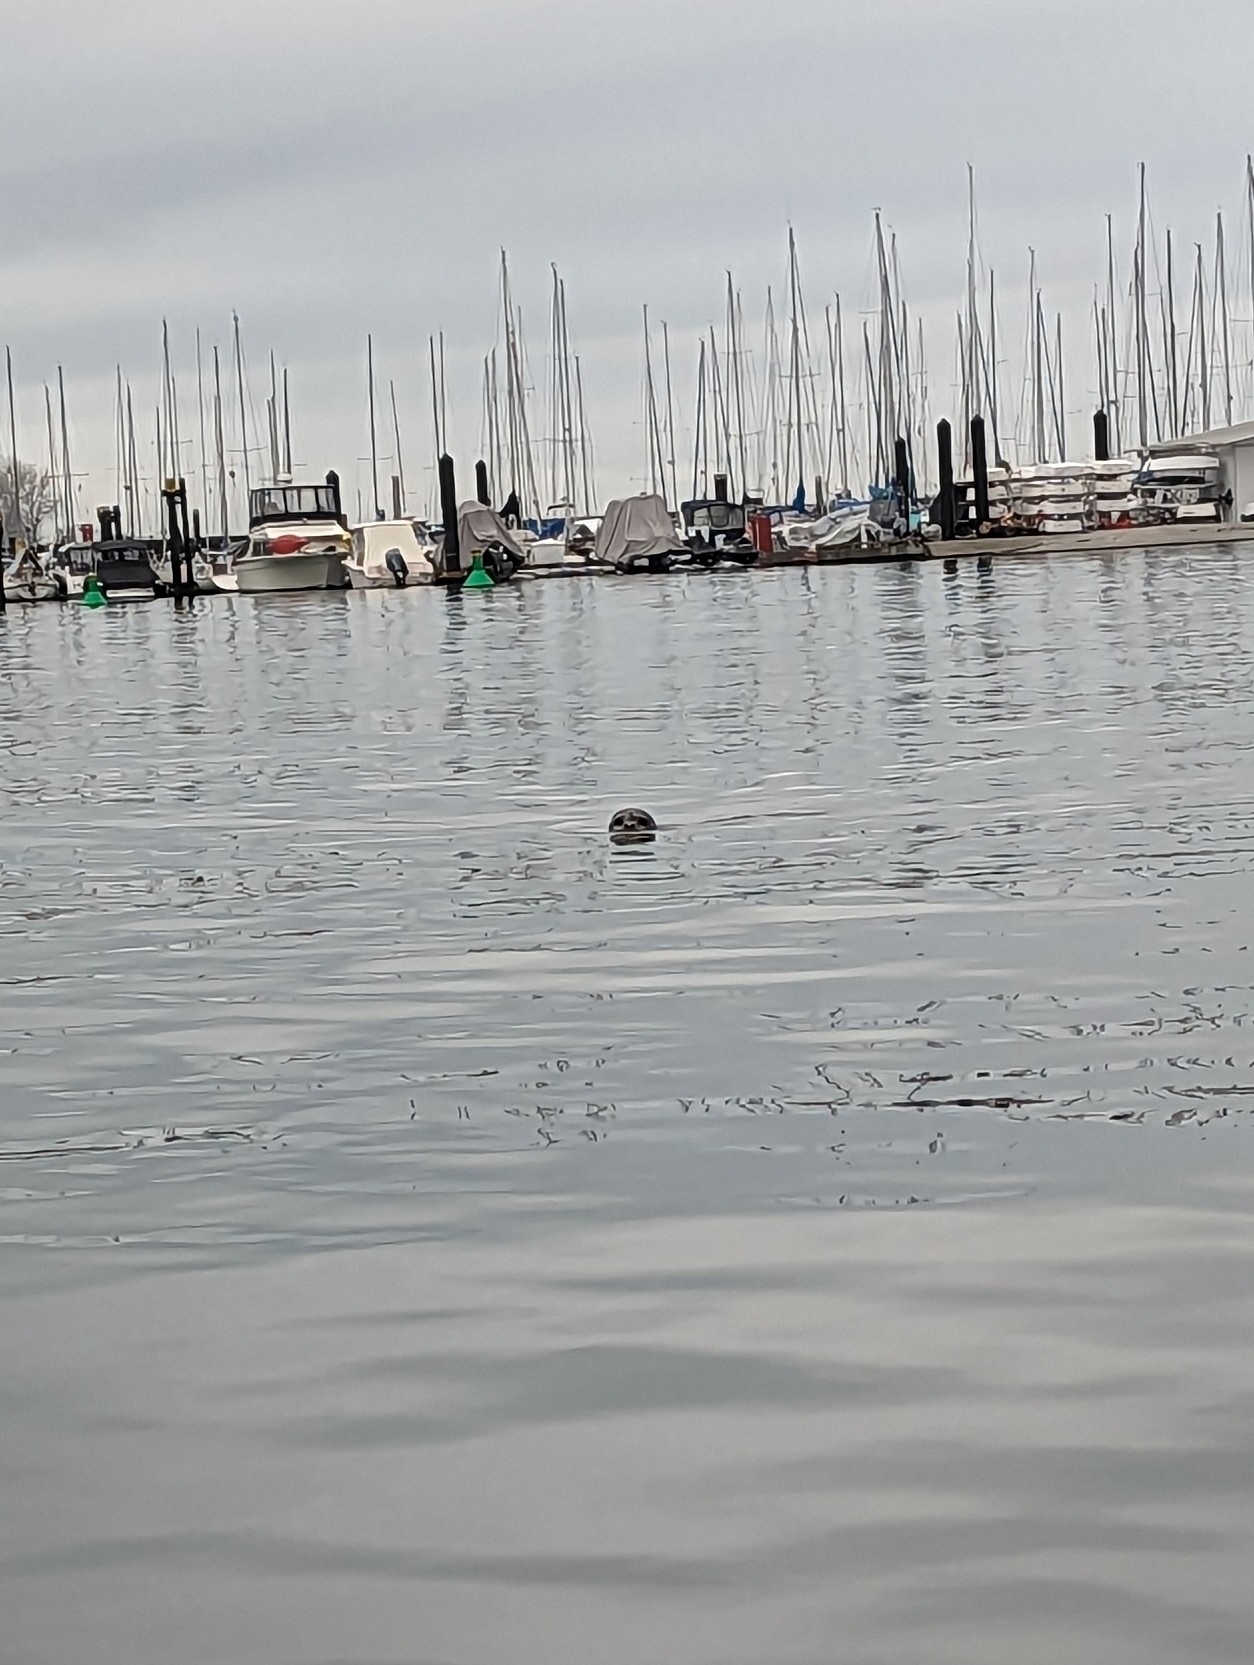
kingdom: Animalia
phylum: Chordata
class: Mammalia
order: Carnivora
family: Phocidae
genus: Phoca
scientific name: Phoca vitulina
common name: Harbor seal
